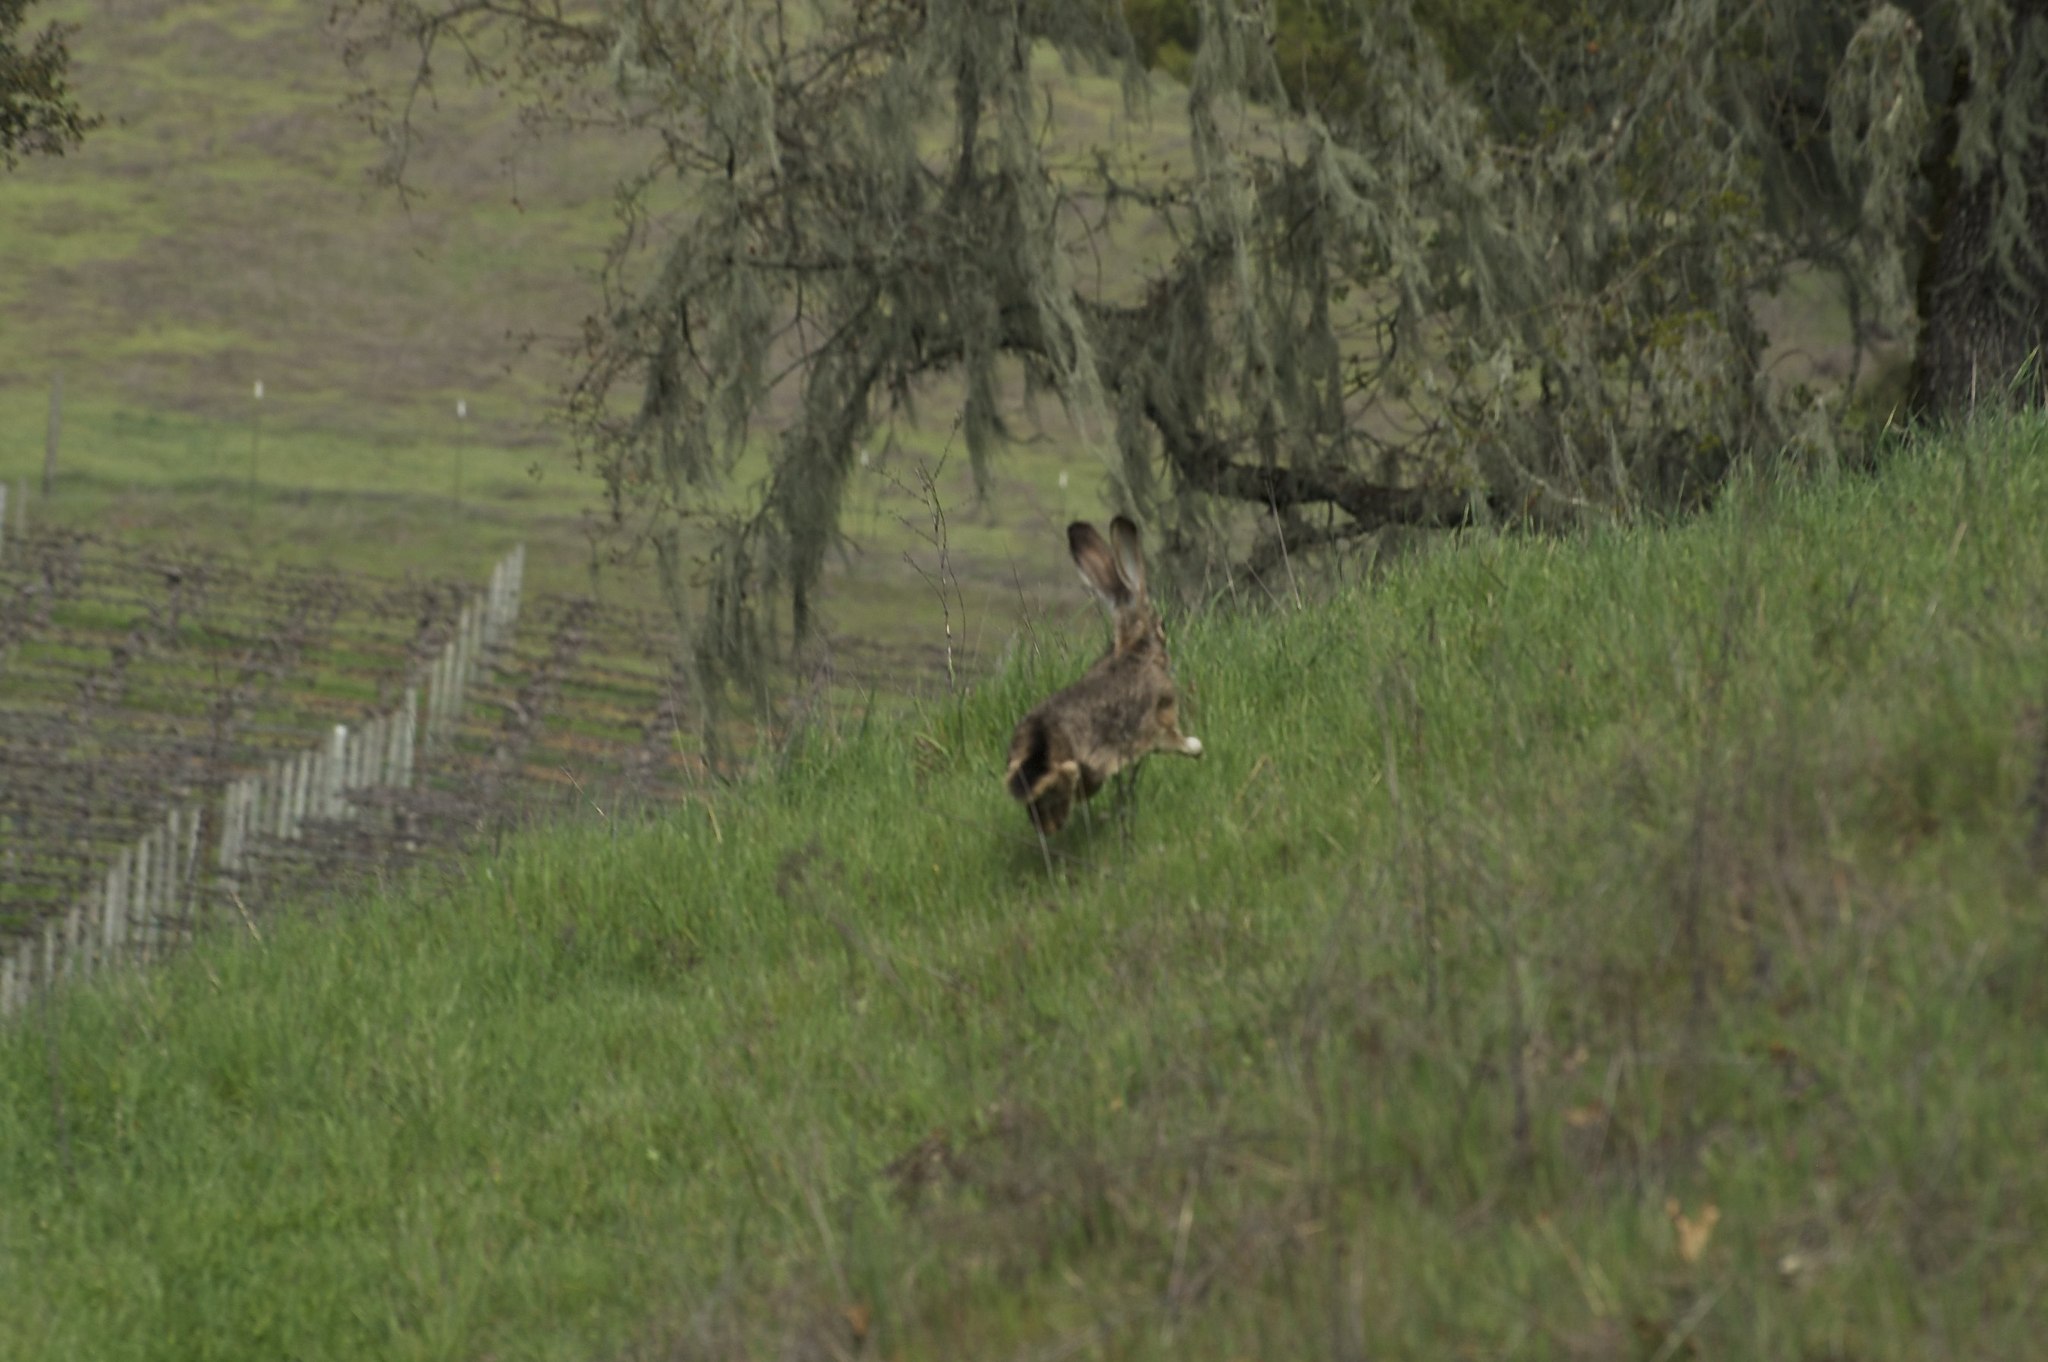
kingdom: Animalia
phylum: Chordata
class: Mammalia
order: Lagomorpha
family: Leporidae
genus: Lepus
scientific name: Lepus californicus
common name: Black-tailed jackrabbit
